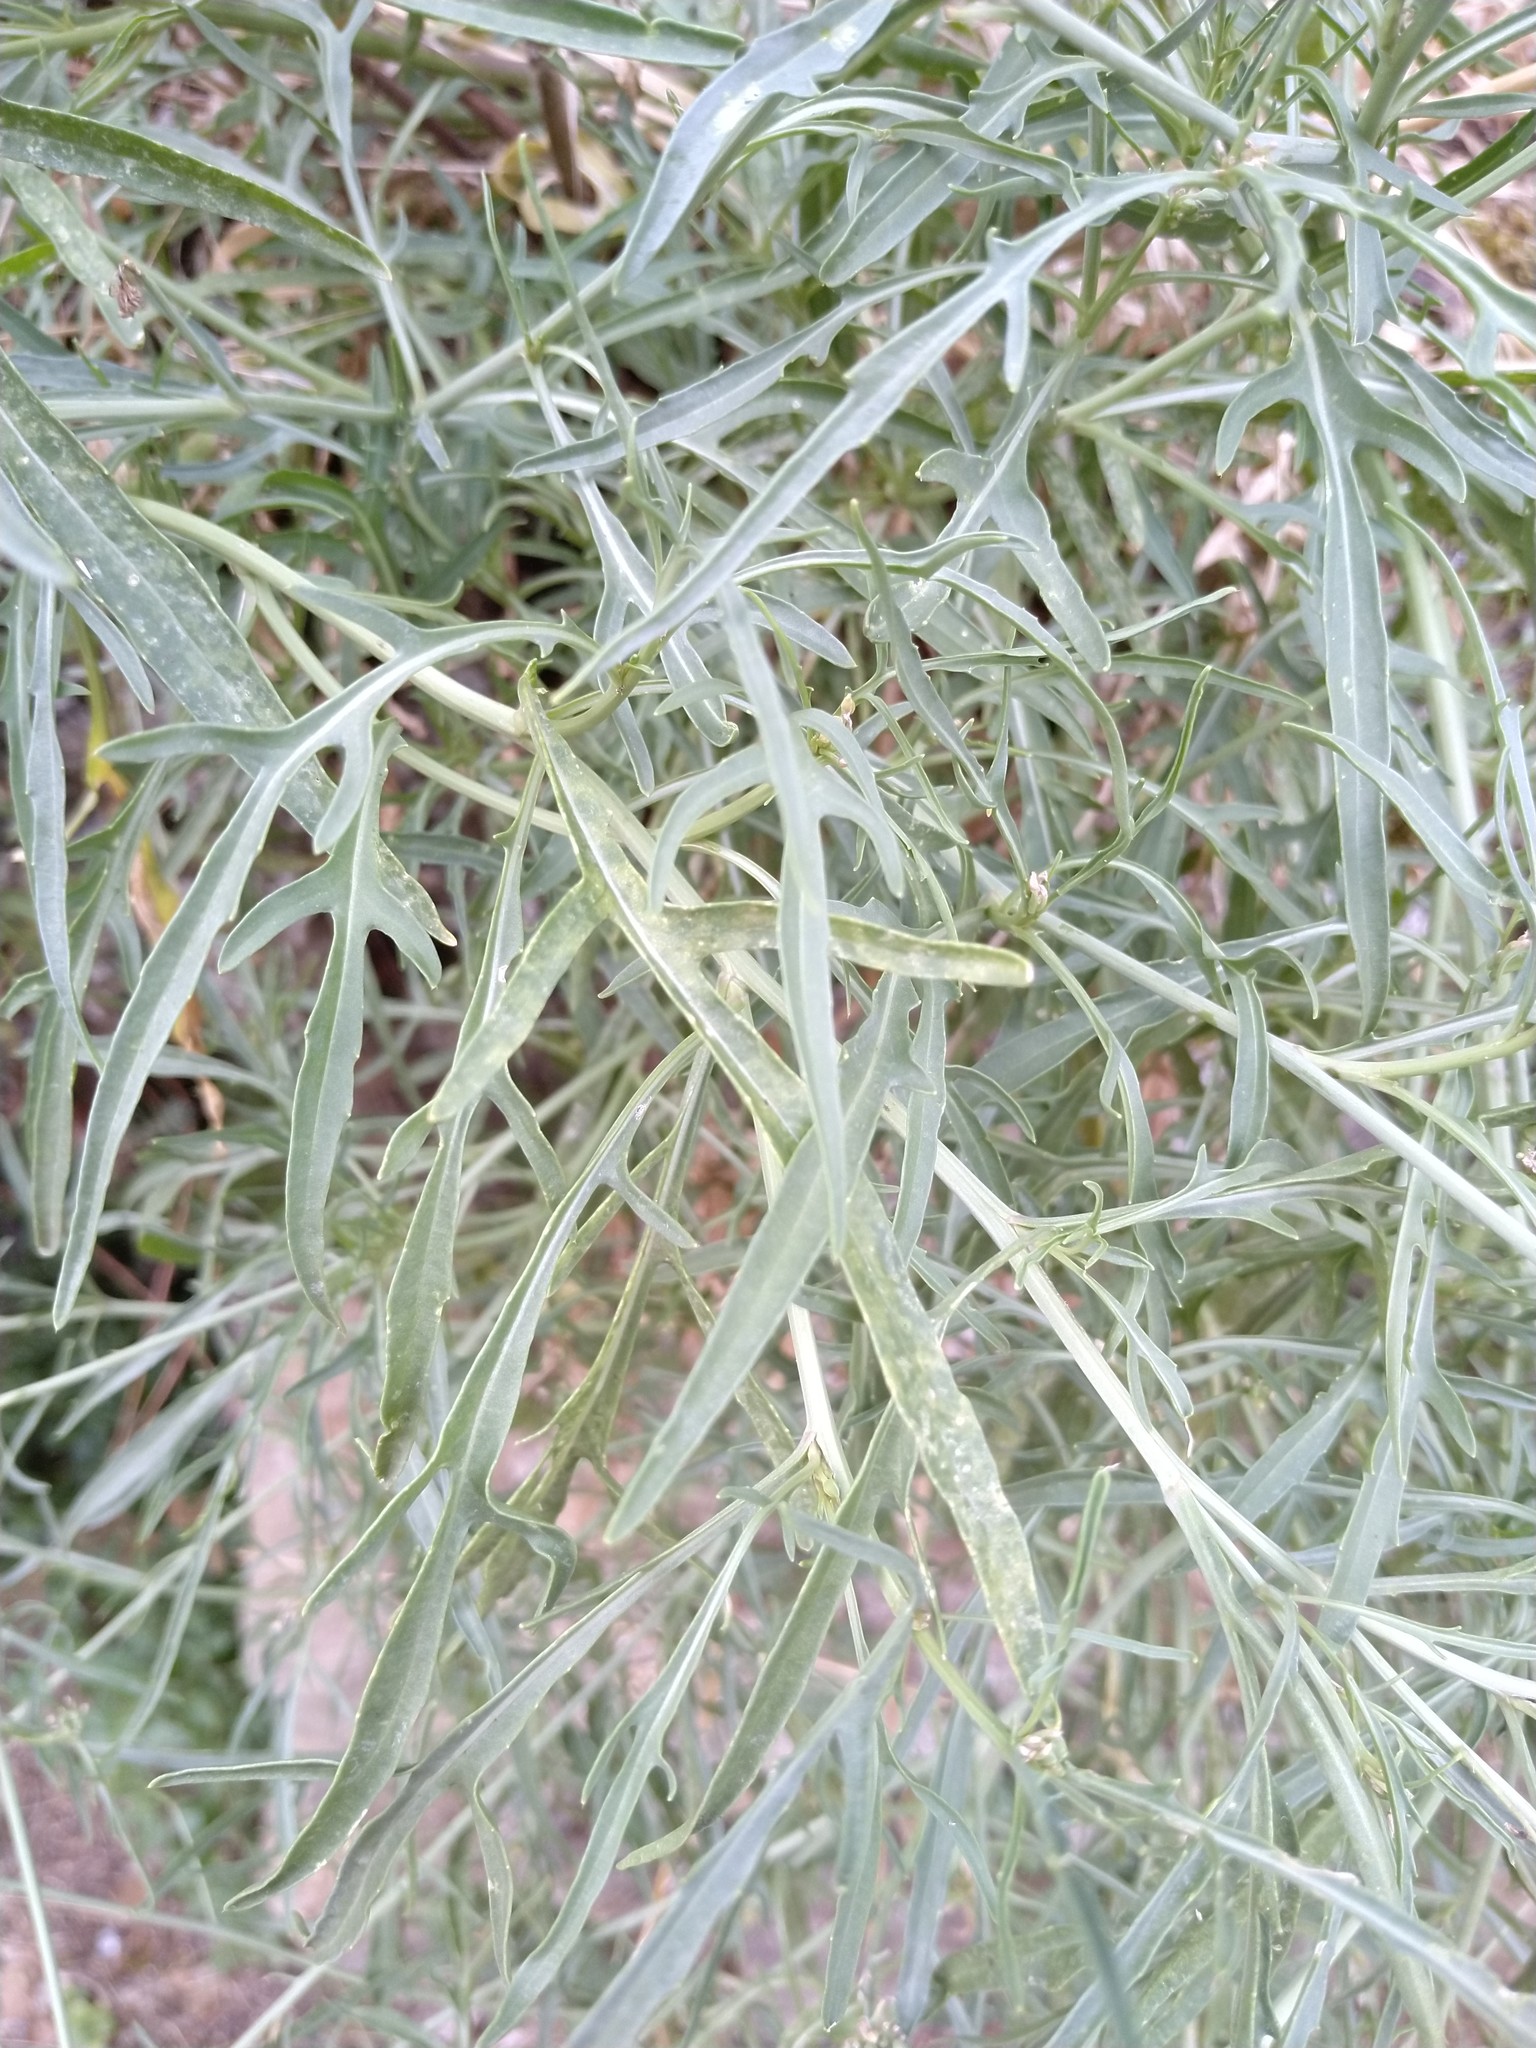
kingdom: Plantae
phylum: Tracheophyta
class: Magnoliopsida
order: Brassicales
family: Brassicaceae
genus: Diplotaxis
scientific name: Diplotaxis tenuifolia
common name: Perennial wall-rocket
